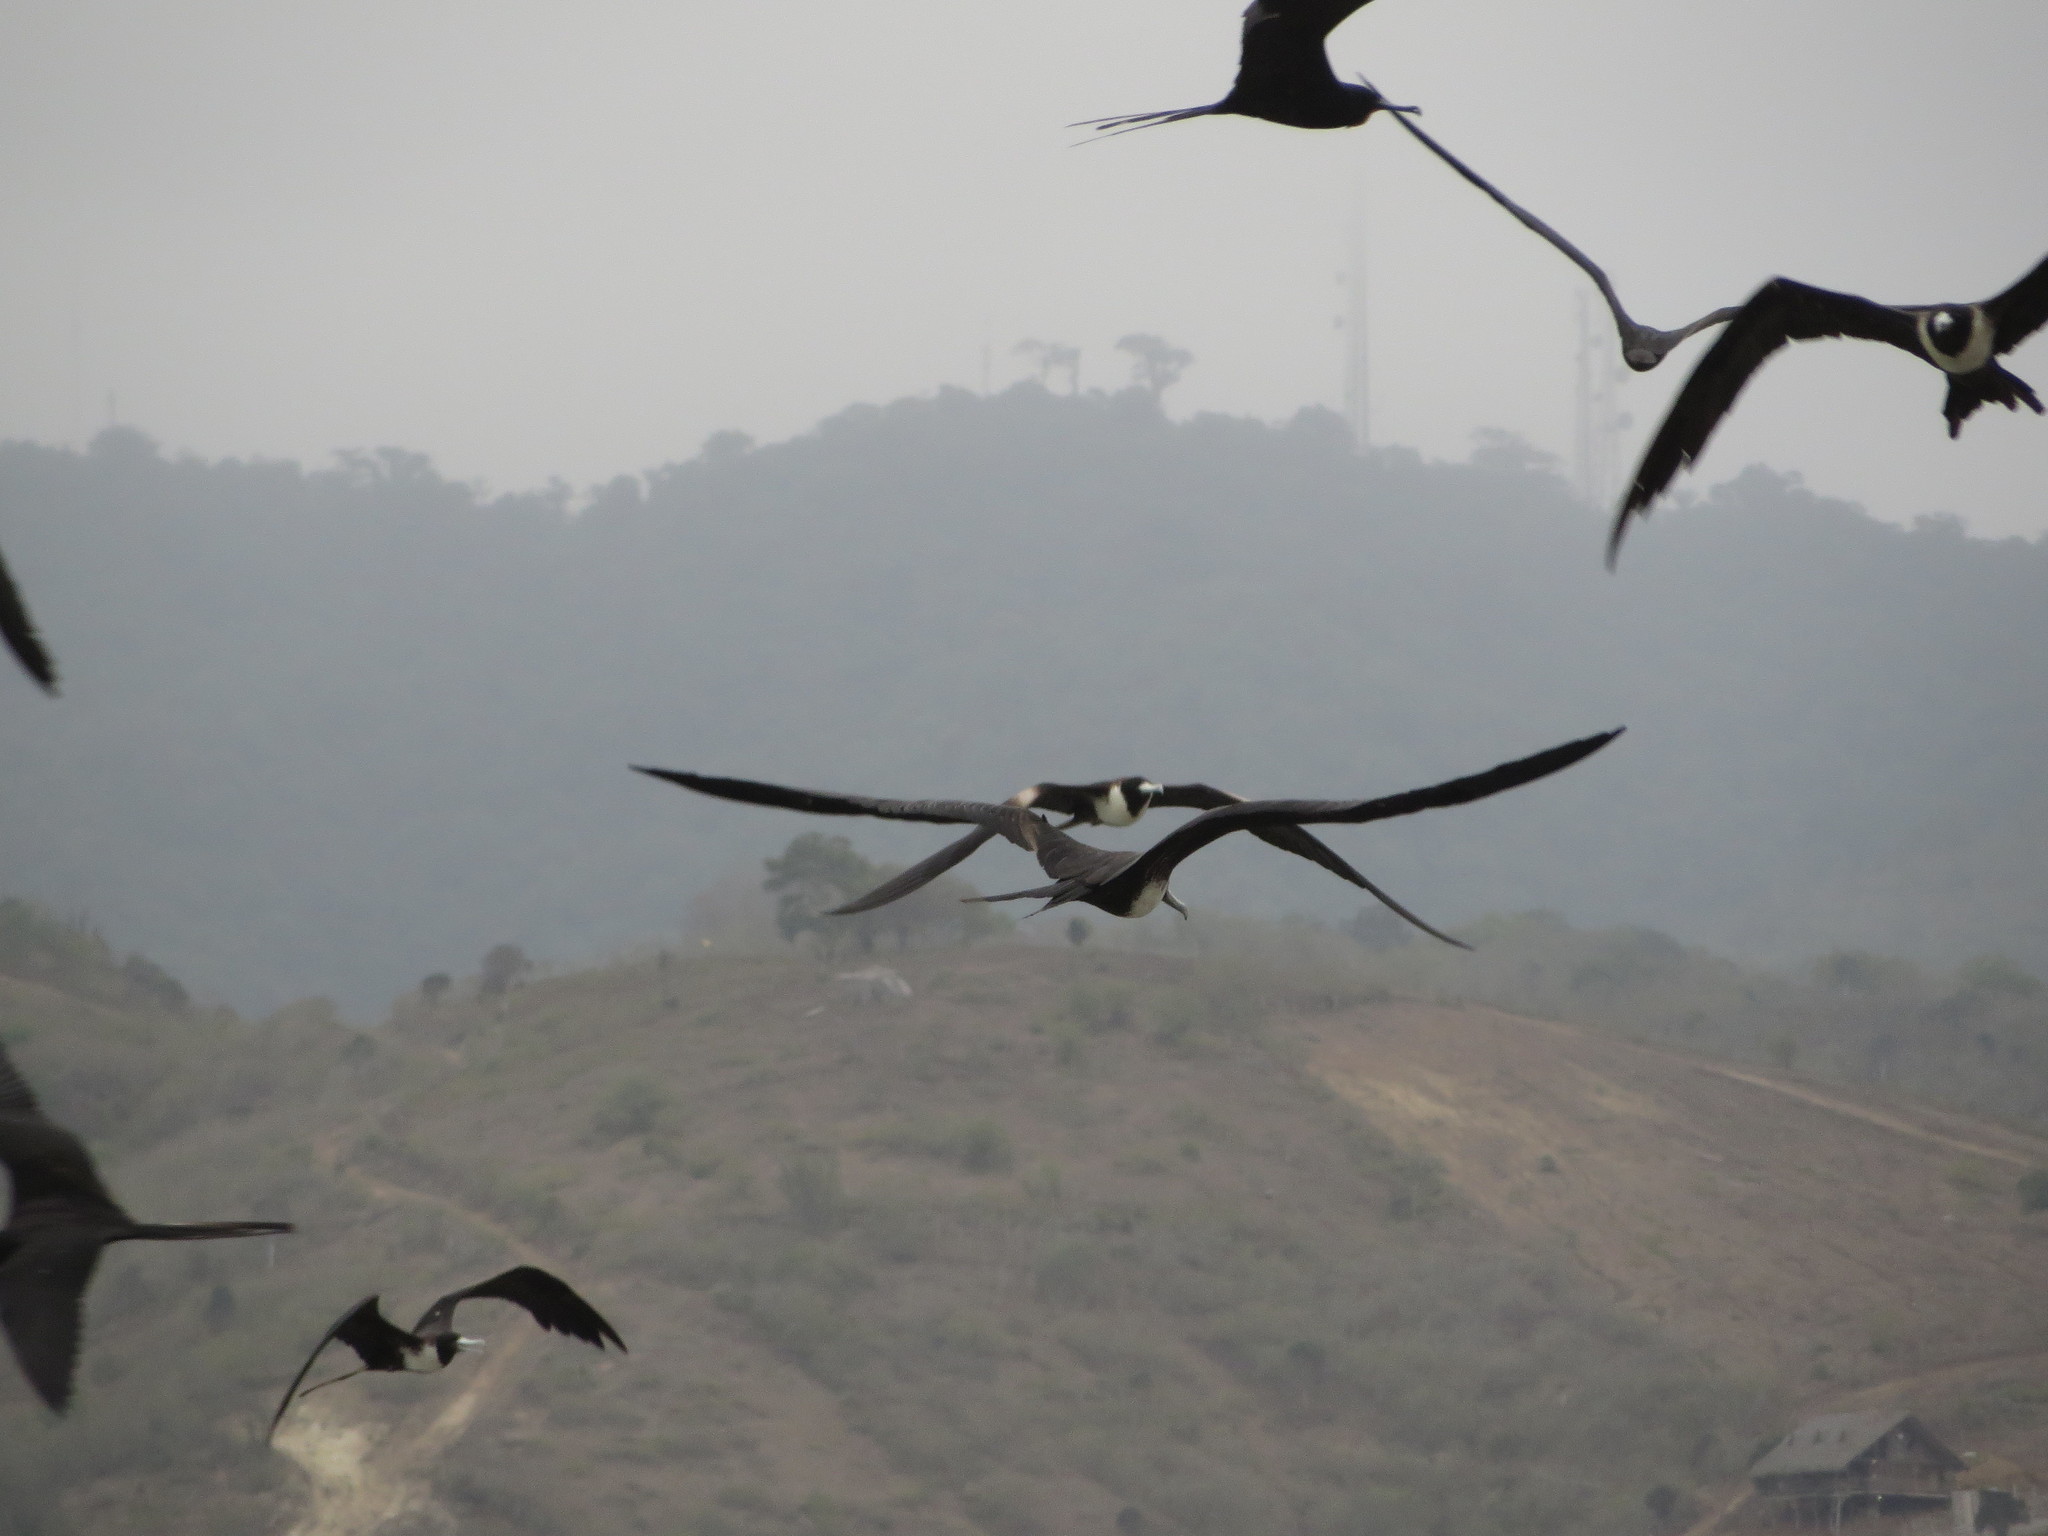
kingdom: Animalia
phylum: Chordata
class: Aves
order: Suliformes
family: Fregatidae
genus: Fregata
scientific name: Fregata magnificens
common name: Magnificent frigatebird
